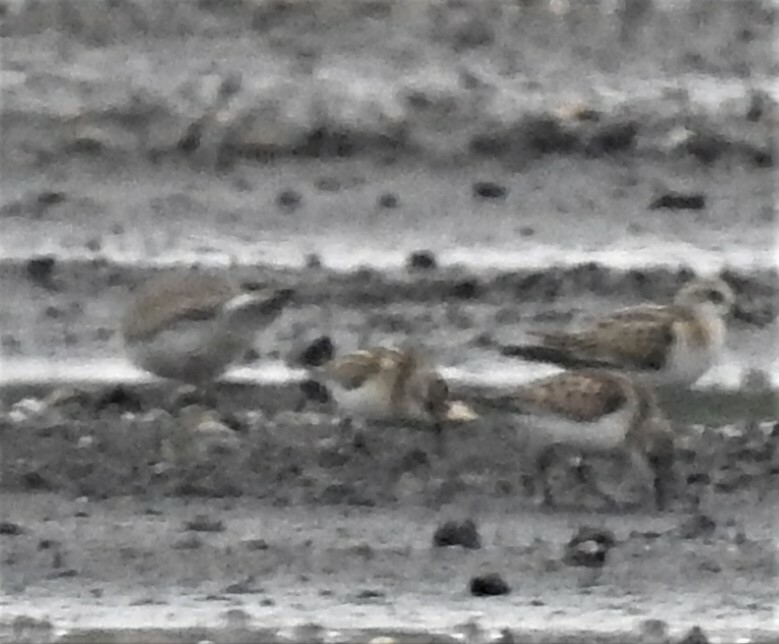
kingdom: Animalia
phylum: Chordata
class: Aves
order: Charadriiformes
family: Scolopacidae
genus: Calidris
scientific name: Calidris minuta
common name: Little stint
